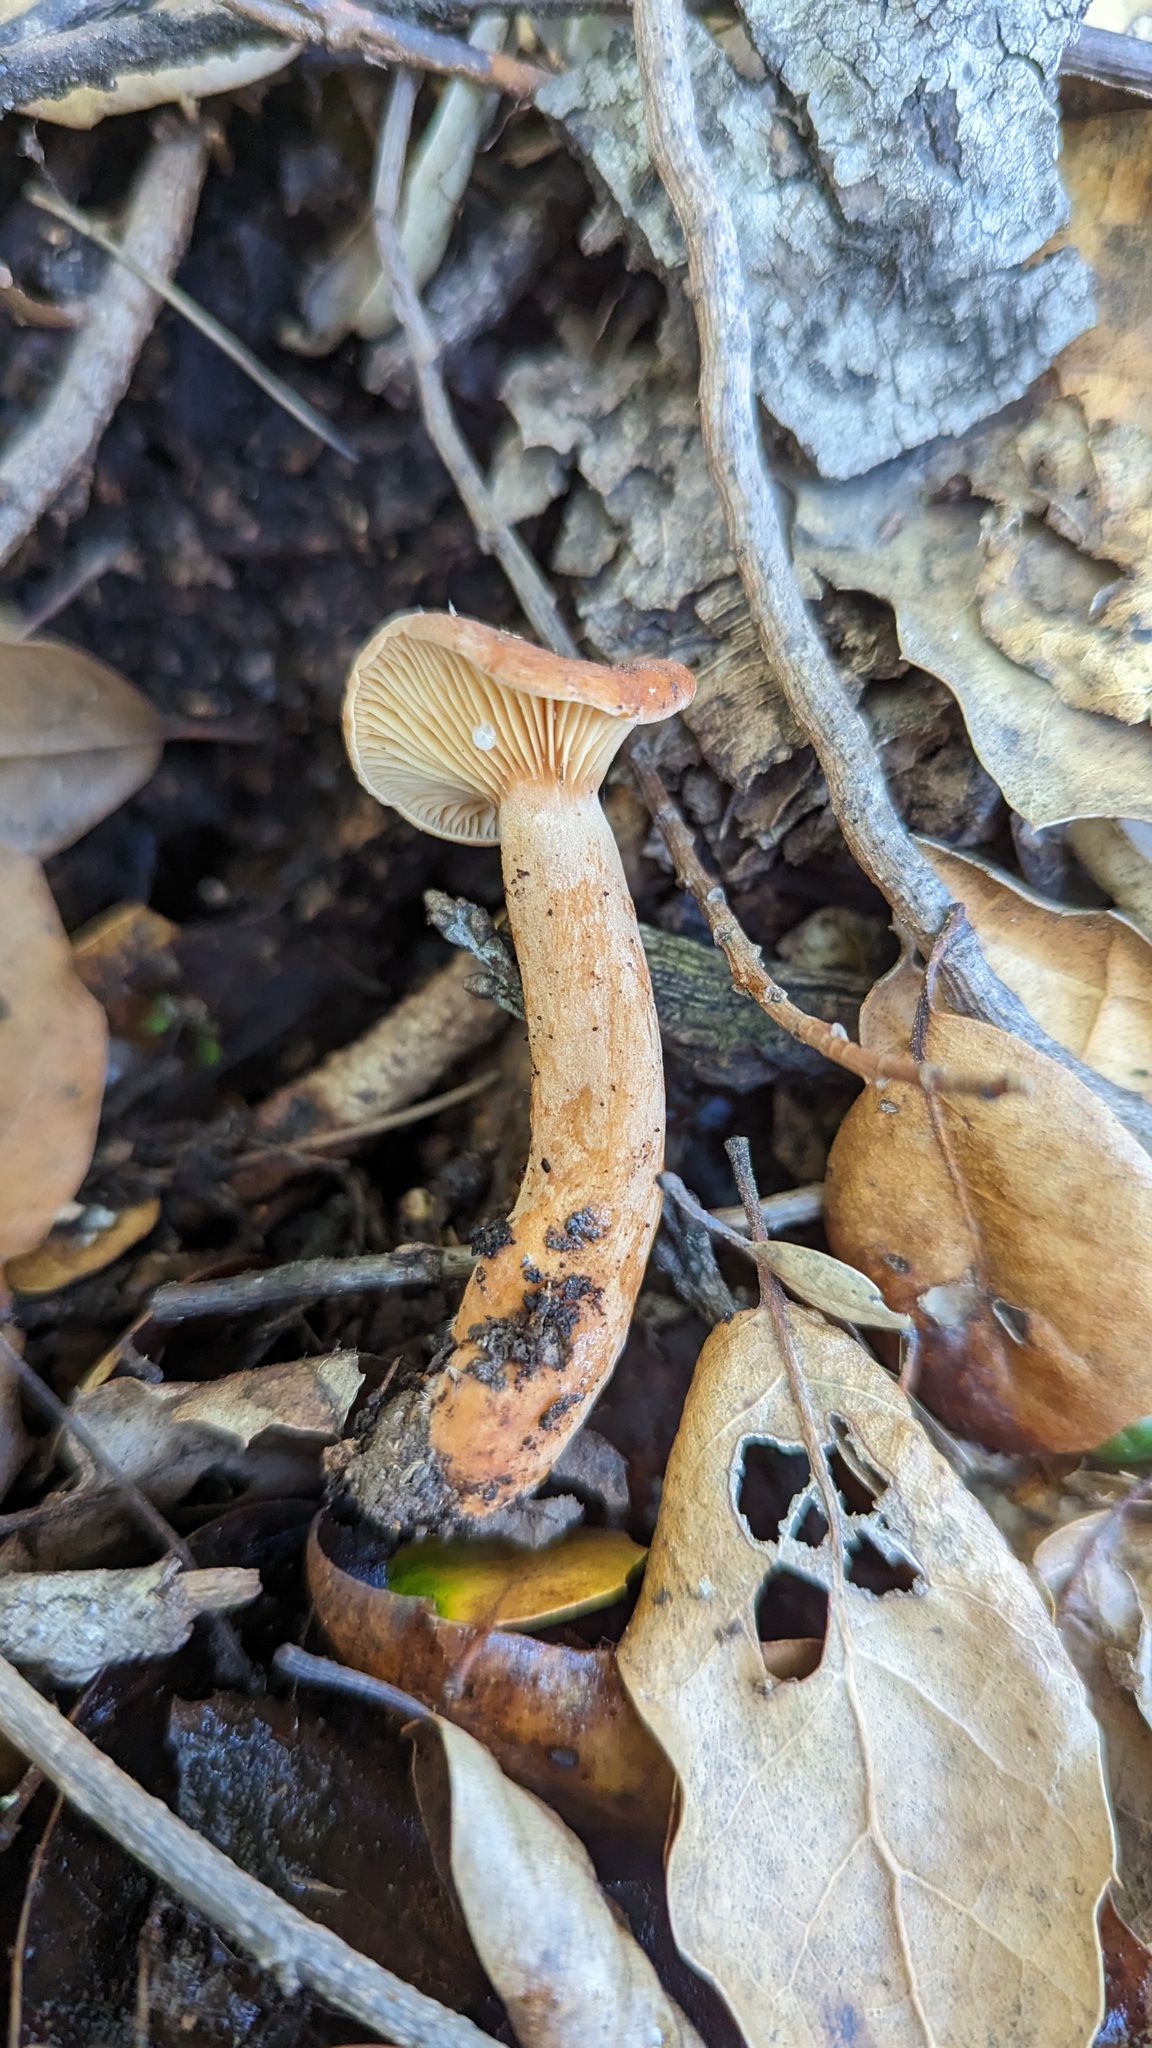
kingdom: Fungi
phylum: Basidiomycota
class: Agaricomycetes
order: Russulales
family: Russulaceae
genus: Lactarius
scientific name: Lactarius rubidus
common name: Candy cap
